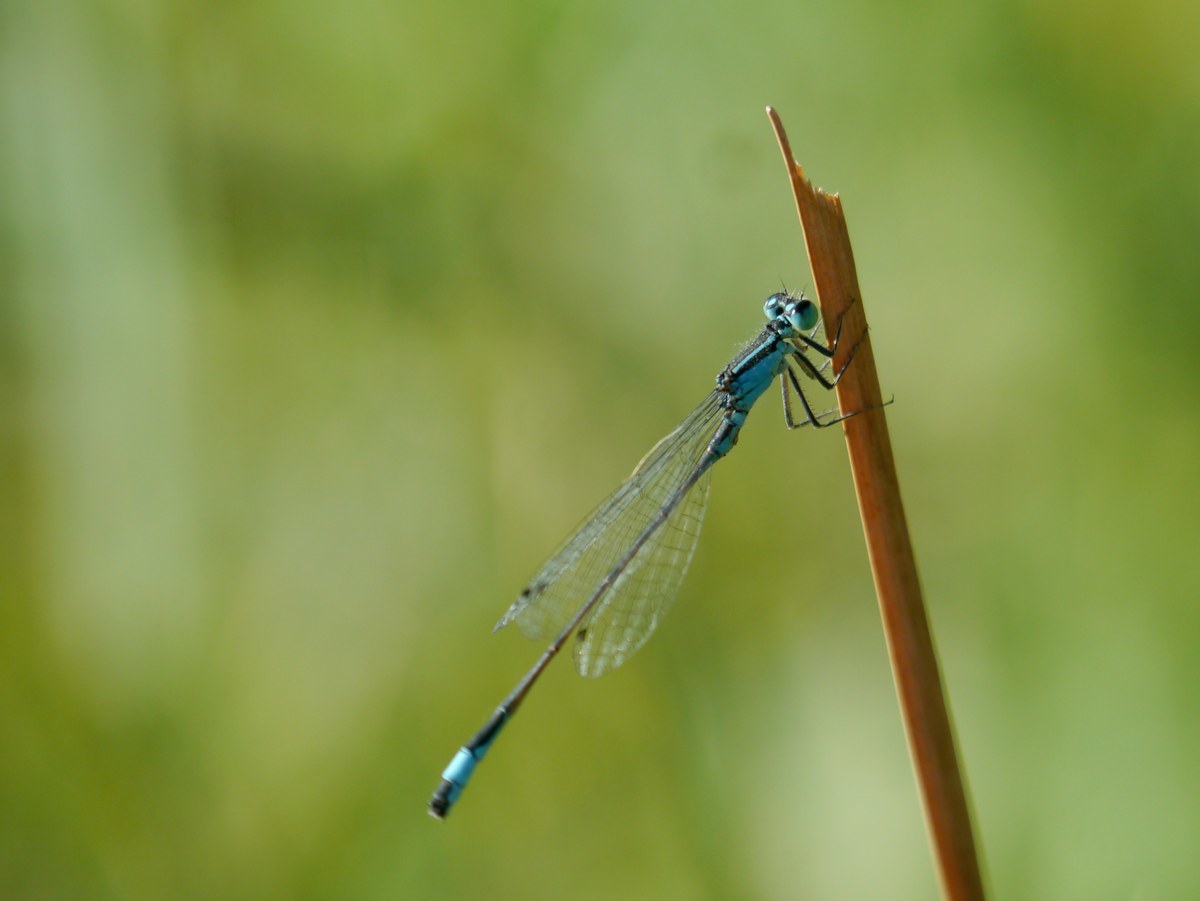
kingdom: Animalia
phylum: Arthropoda
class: Insecta
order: Odonata
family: Coenagrionidae
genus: Ischnura
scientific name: Ischnura elegans
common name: Blue-tailed damselfly
